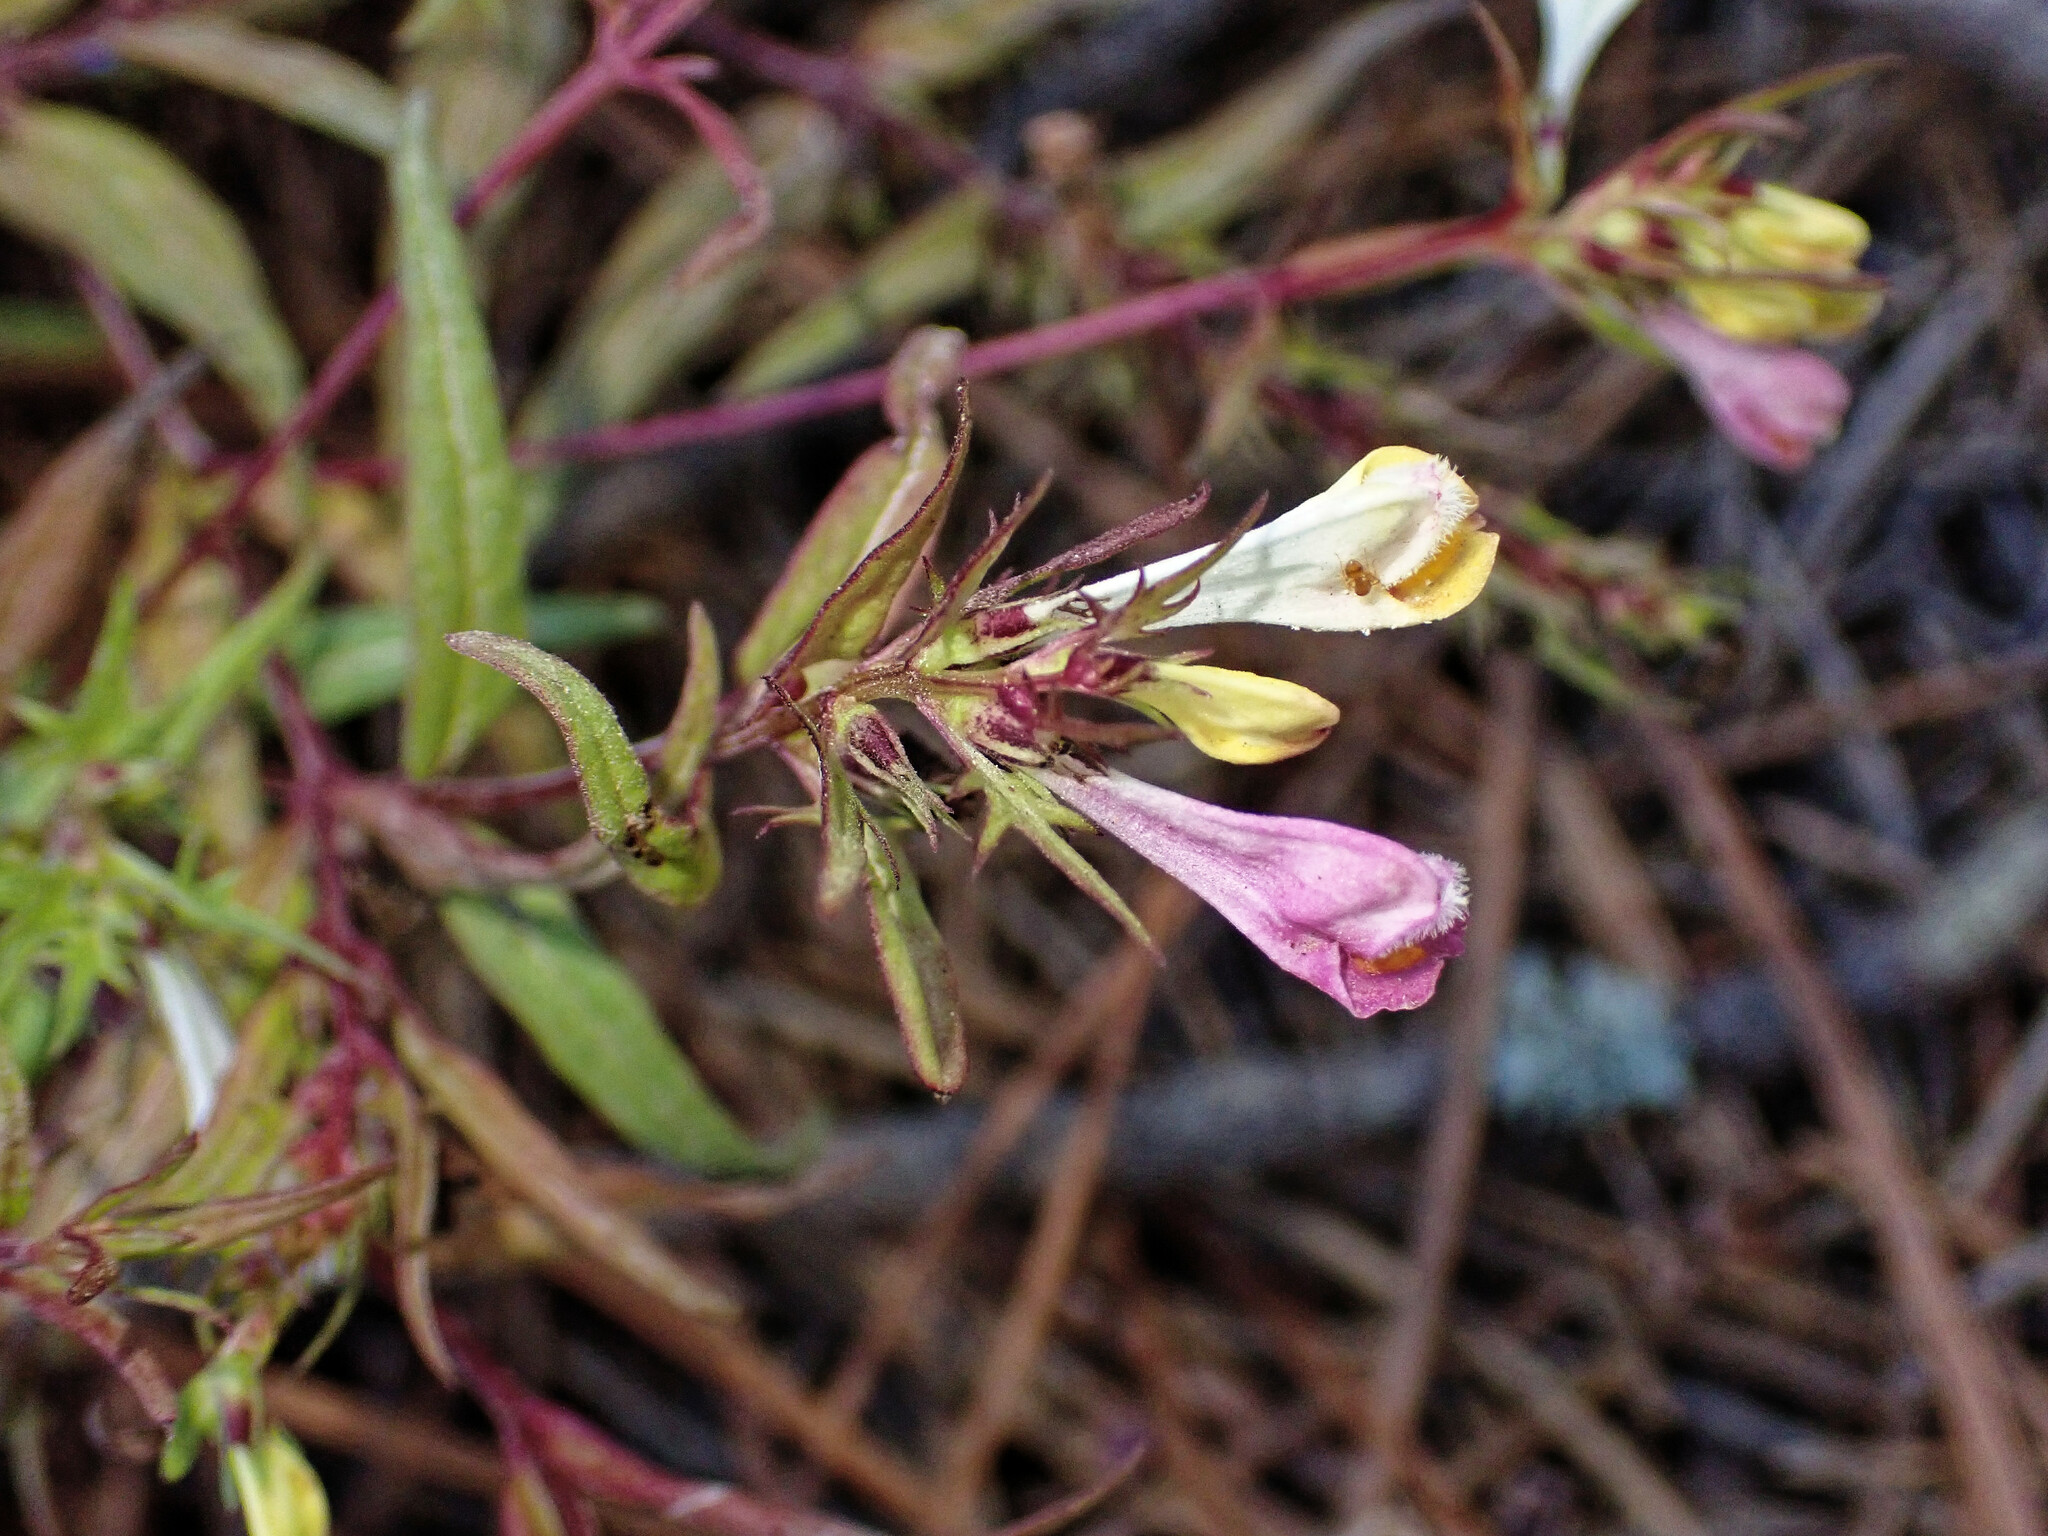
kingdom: Plantae
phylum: Tracheophyta
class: Magnoliopsida
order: Lamiales
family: Orobanchaceae
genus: Melampyrum
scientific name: Melampyrum pratense
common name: Common cow-wheat
